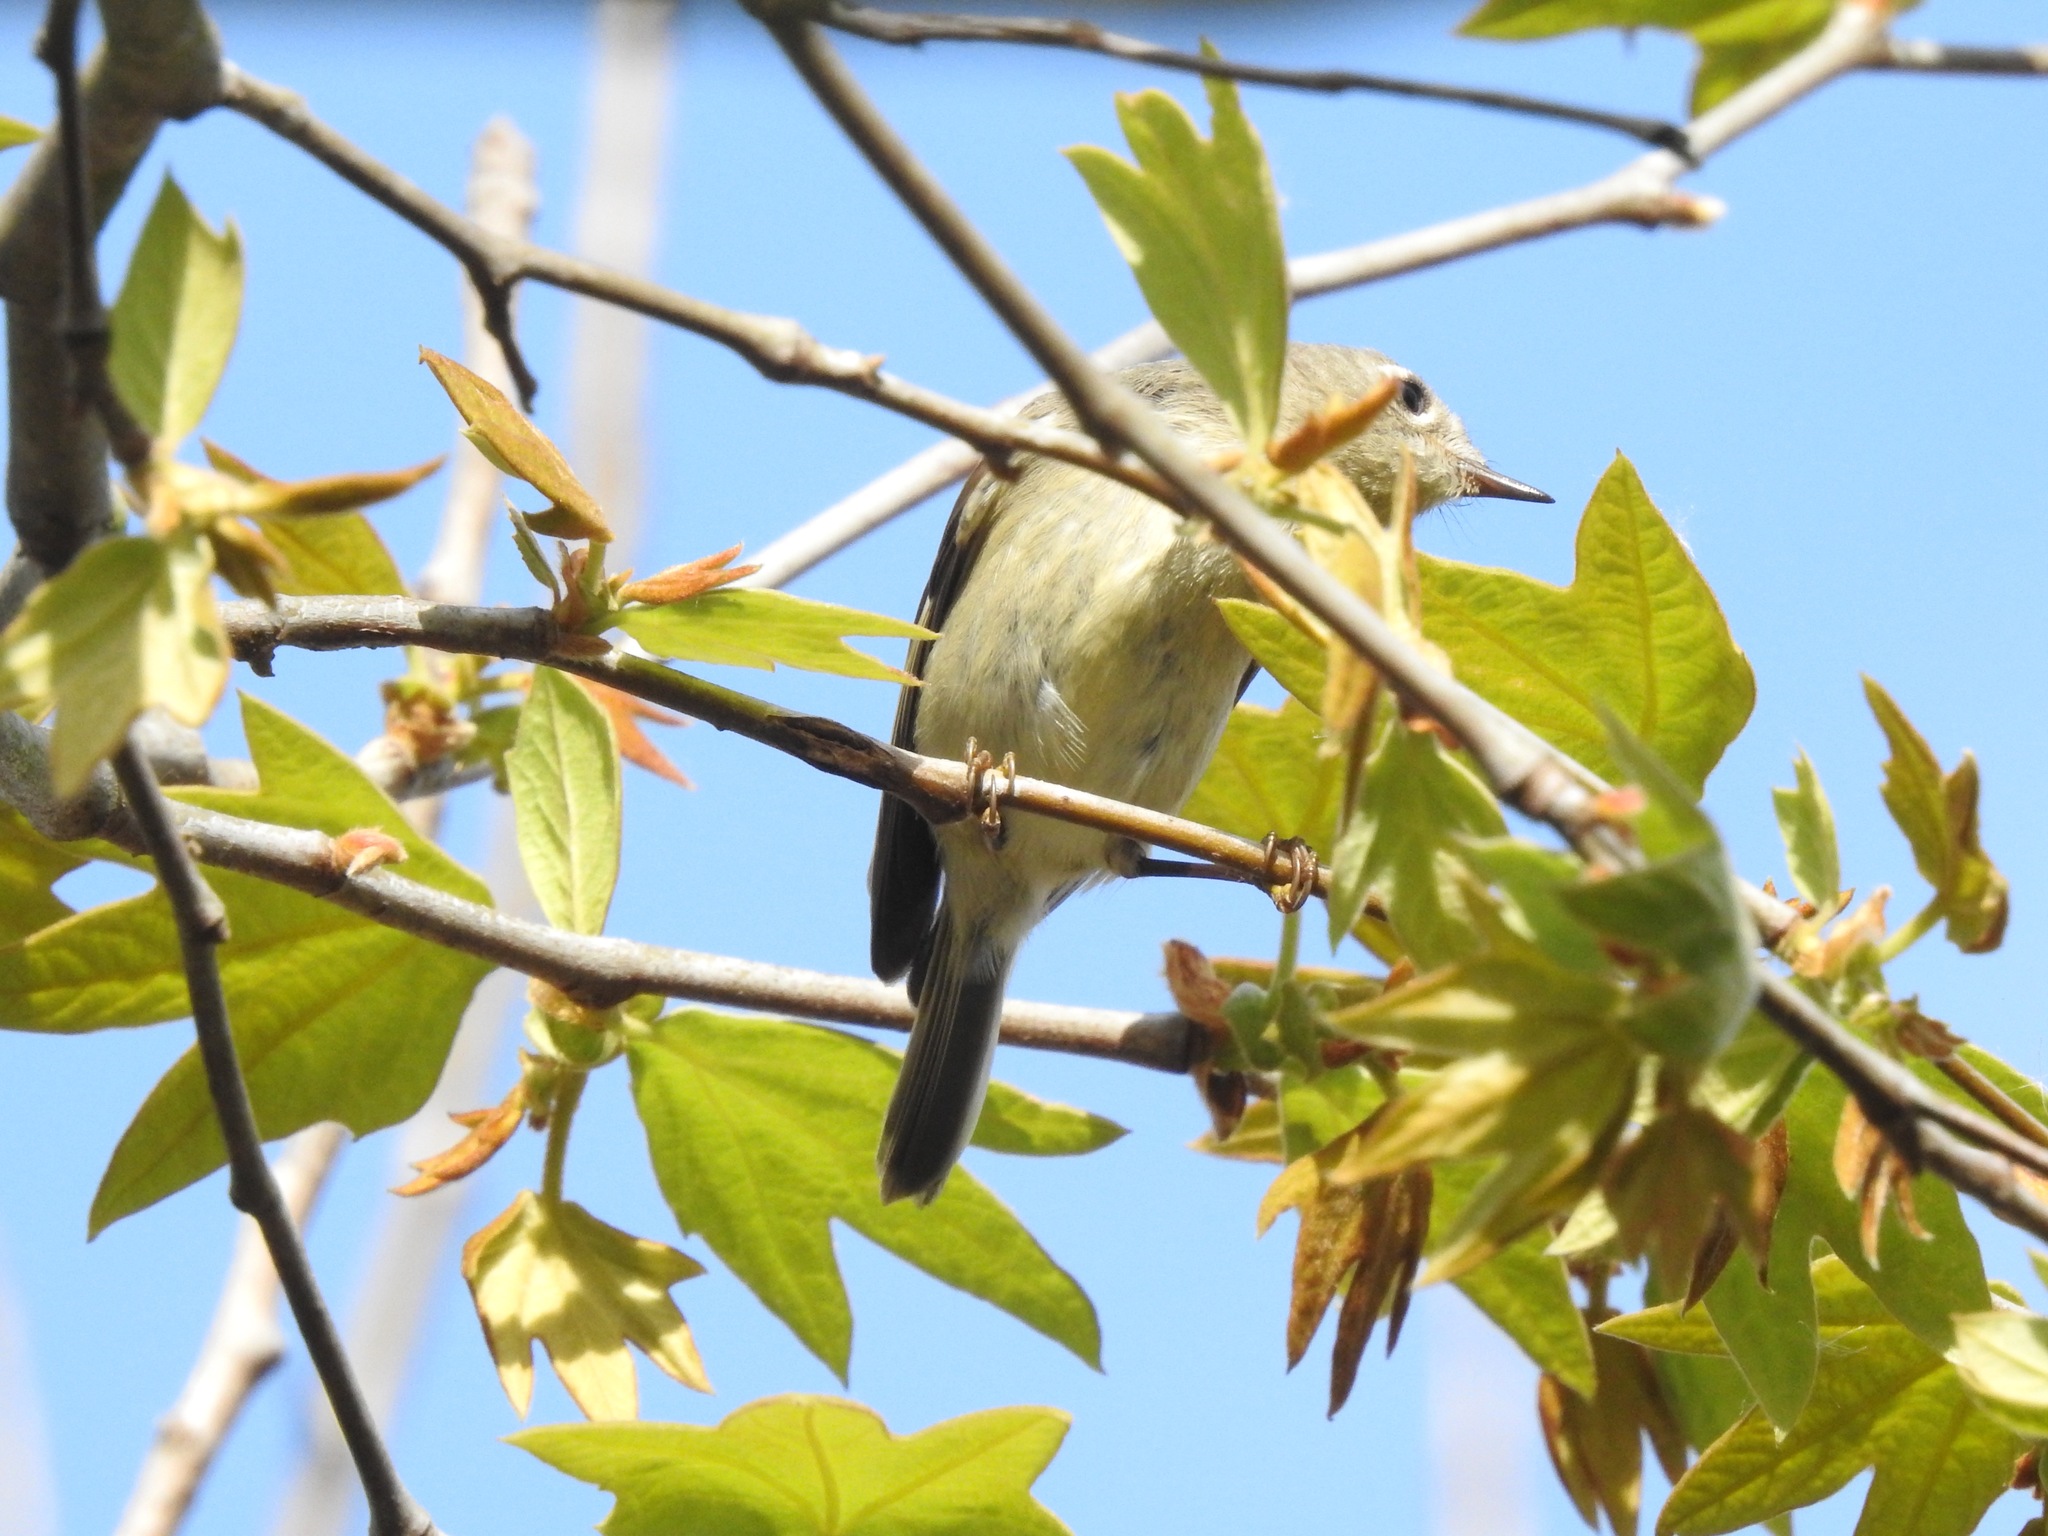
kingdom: Animalia
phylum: Chordata
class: Aves
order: Passeriformes
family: Regulidae
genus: Regulus
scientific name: Regulus calendula
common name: Ruby-crowned kinglet
